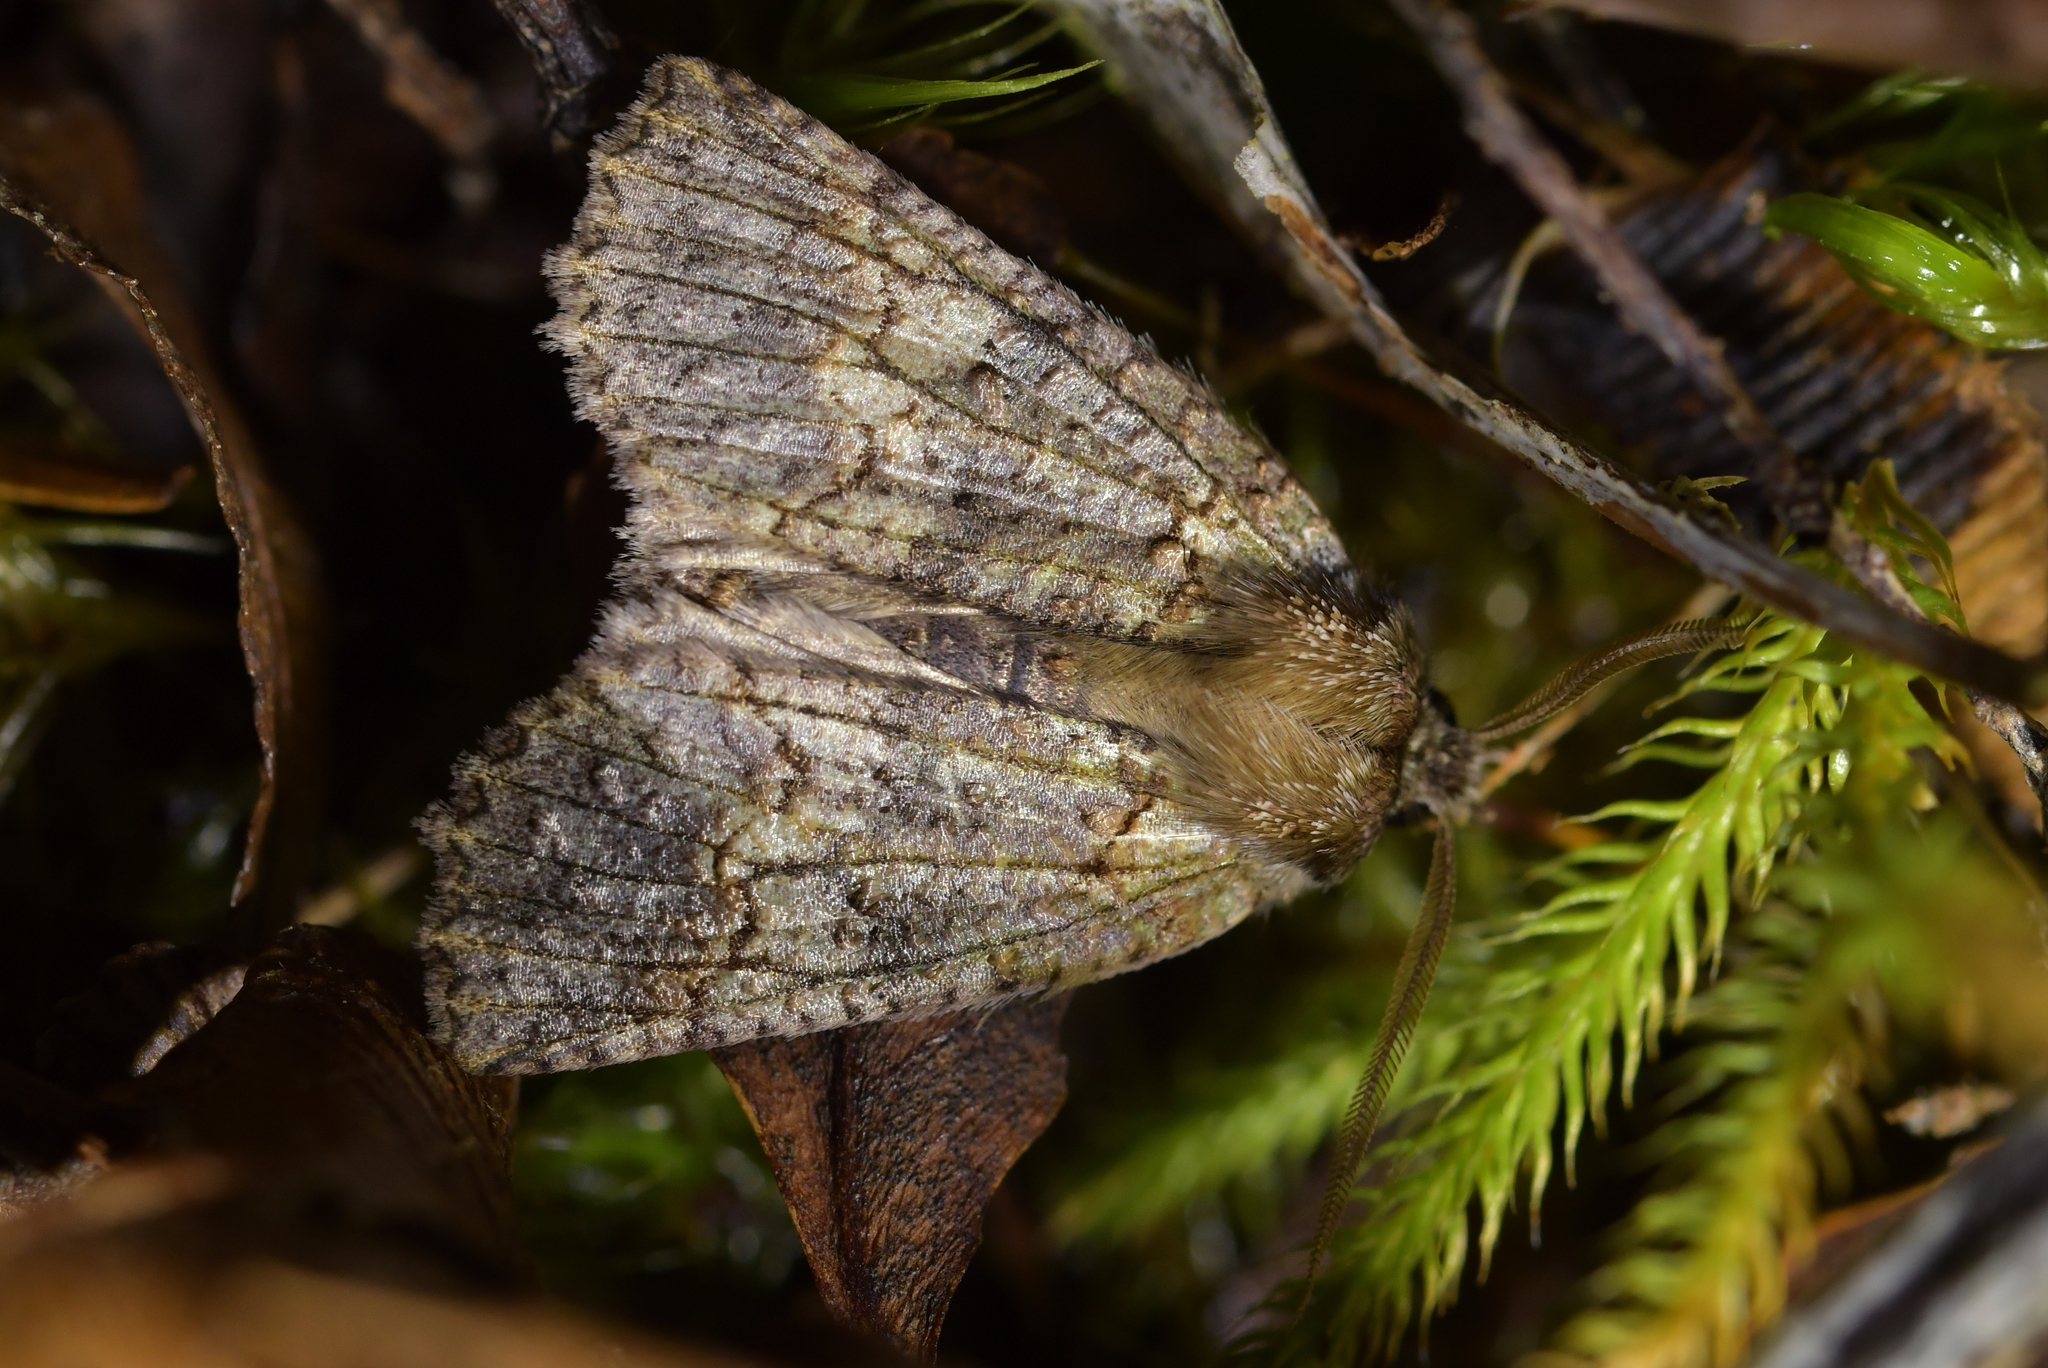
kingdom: Animalia
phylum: Arthropoda
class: Insecta
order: Lepidoptera
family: Geometridae
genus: Declana
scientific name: Declana floccosa
